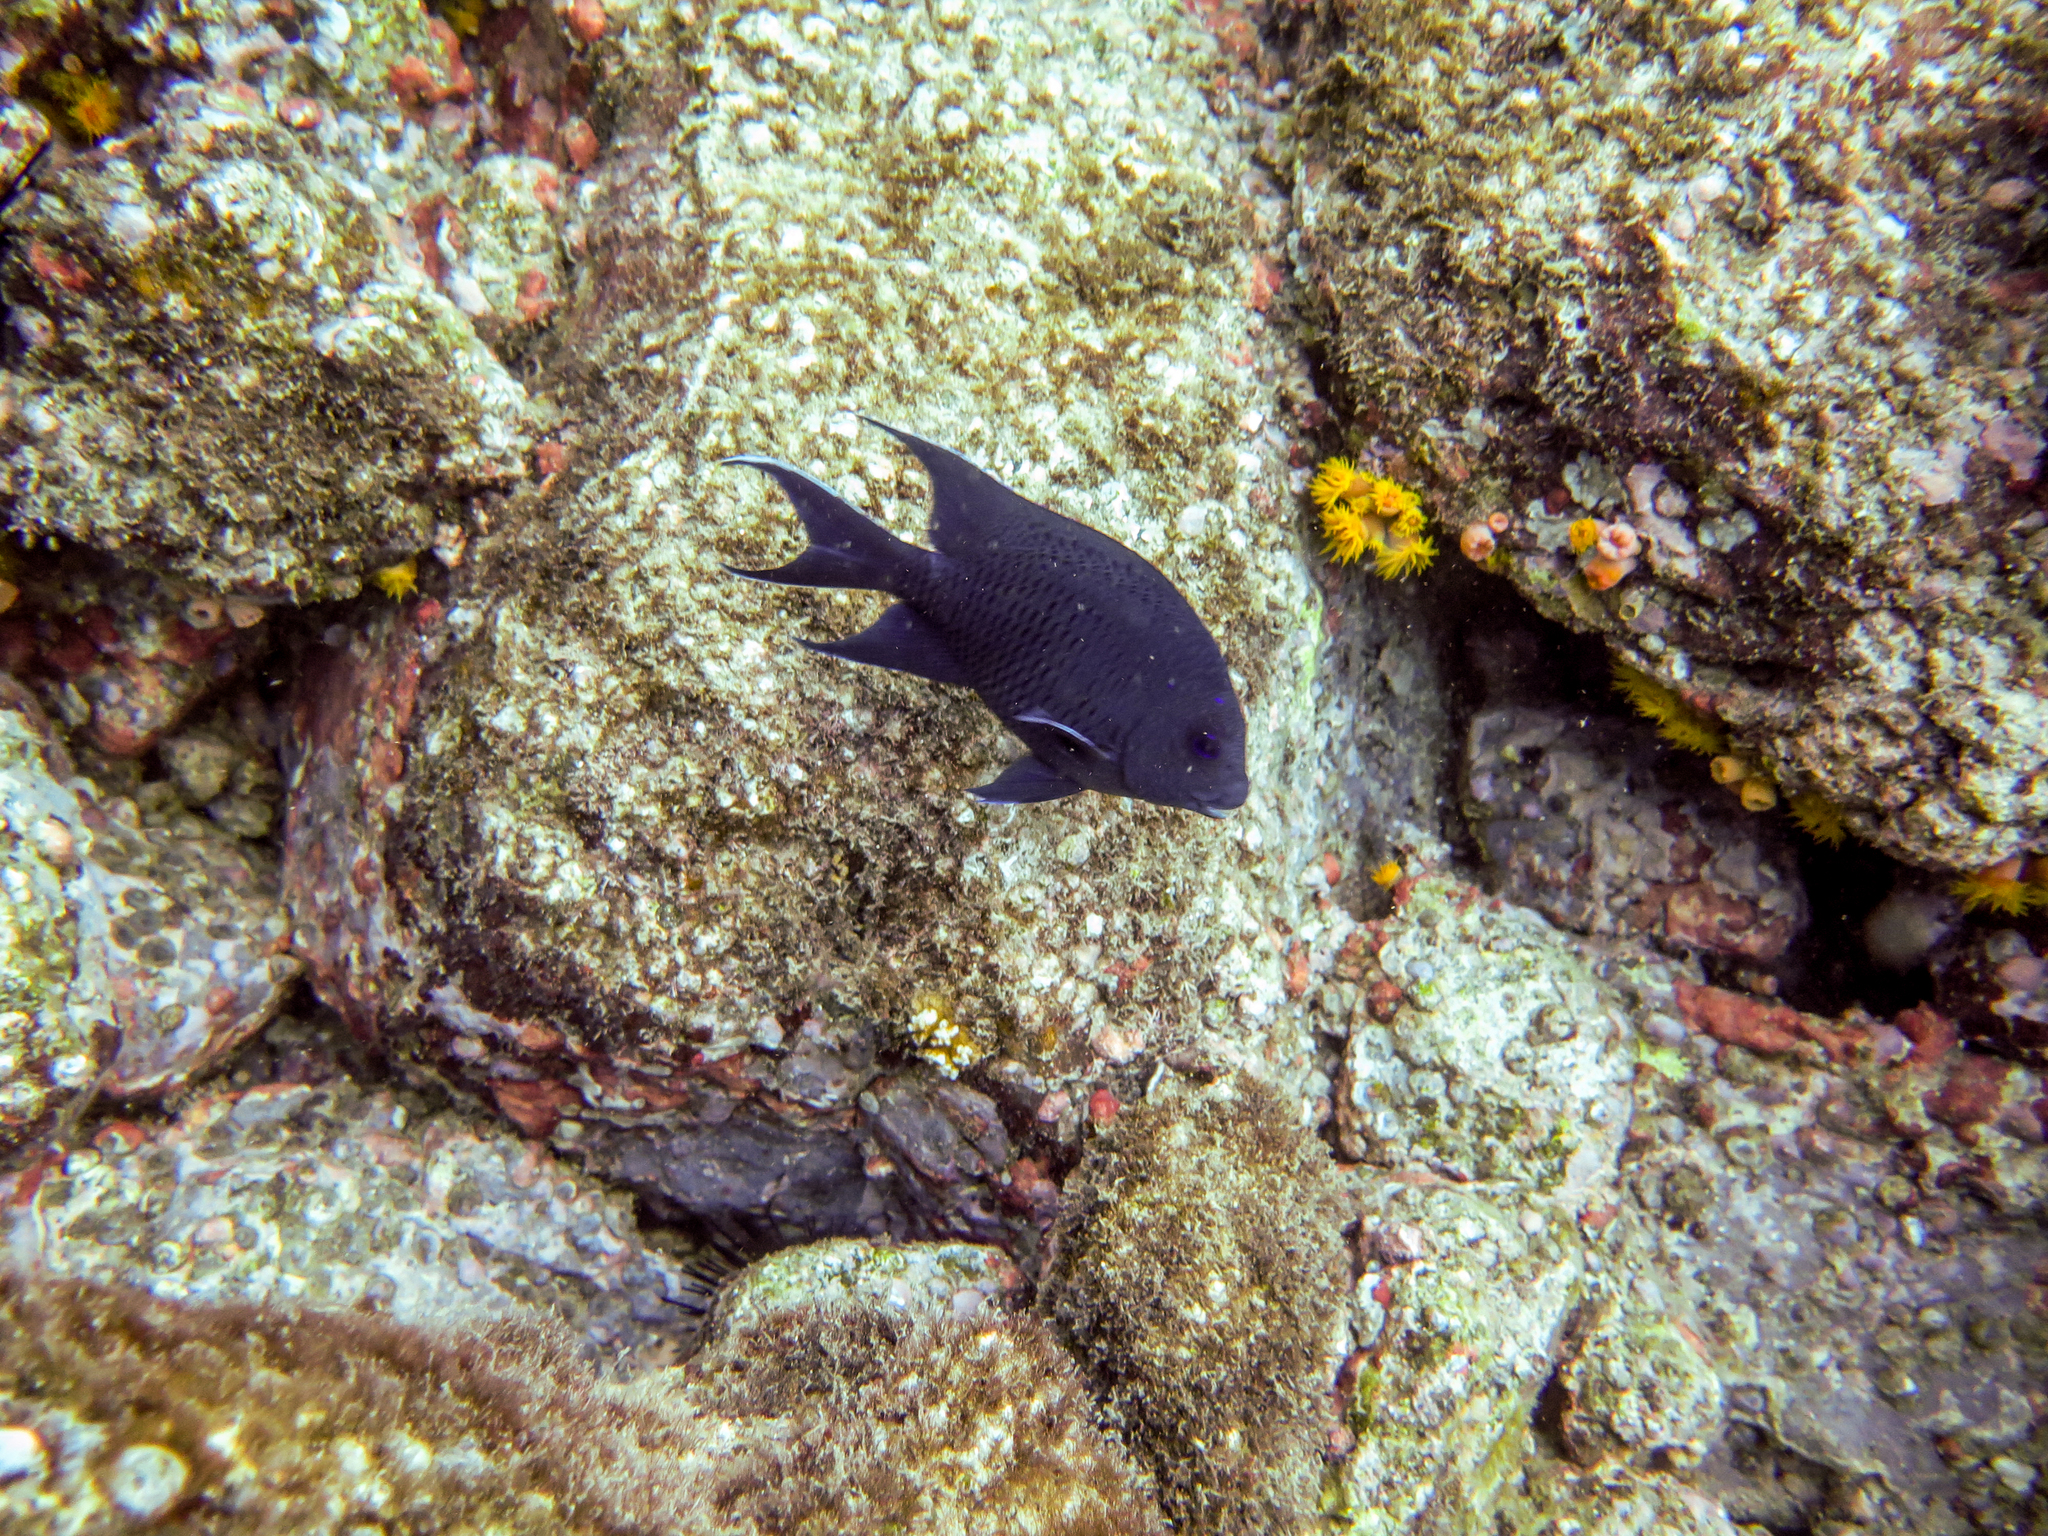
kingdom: Animalia
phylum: Chordata
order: Perciformes
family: Pomacentridae
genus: Microspathodon
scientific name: Microspathodon dorsalis
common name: Giant damselfish
